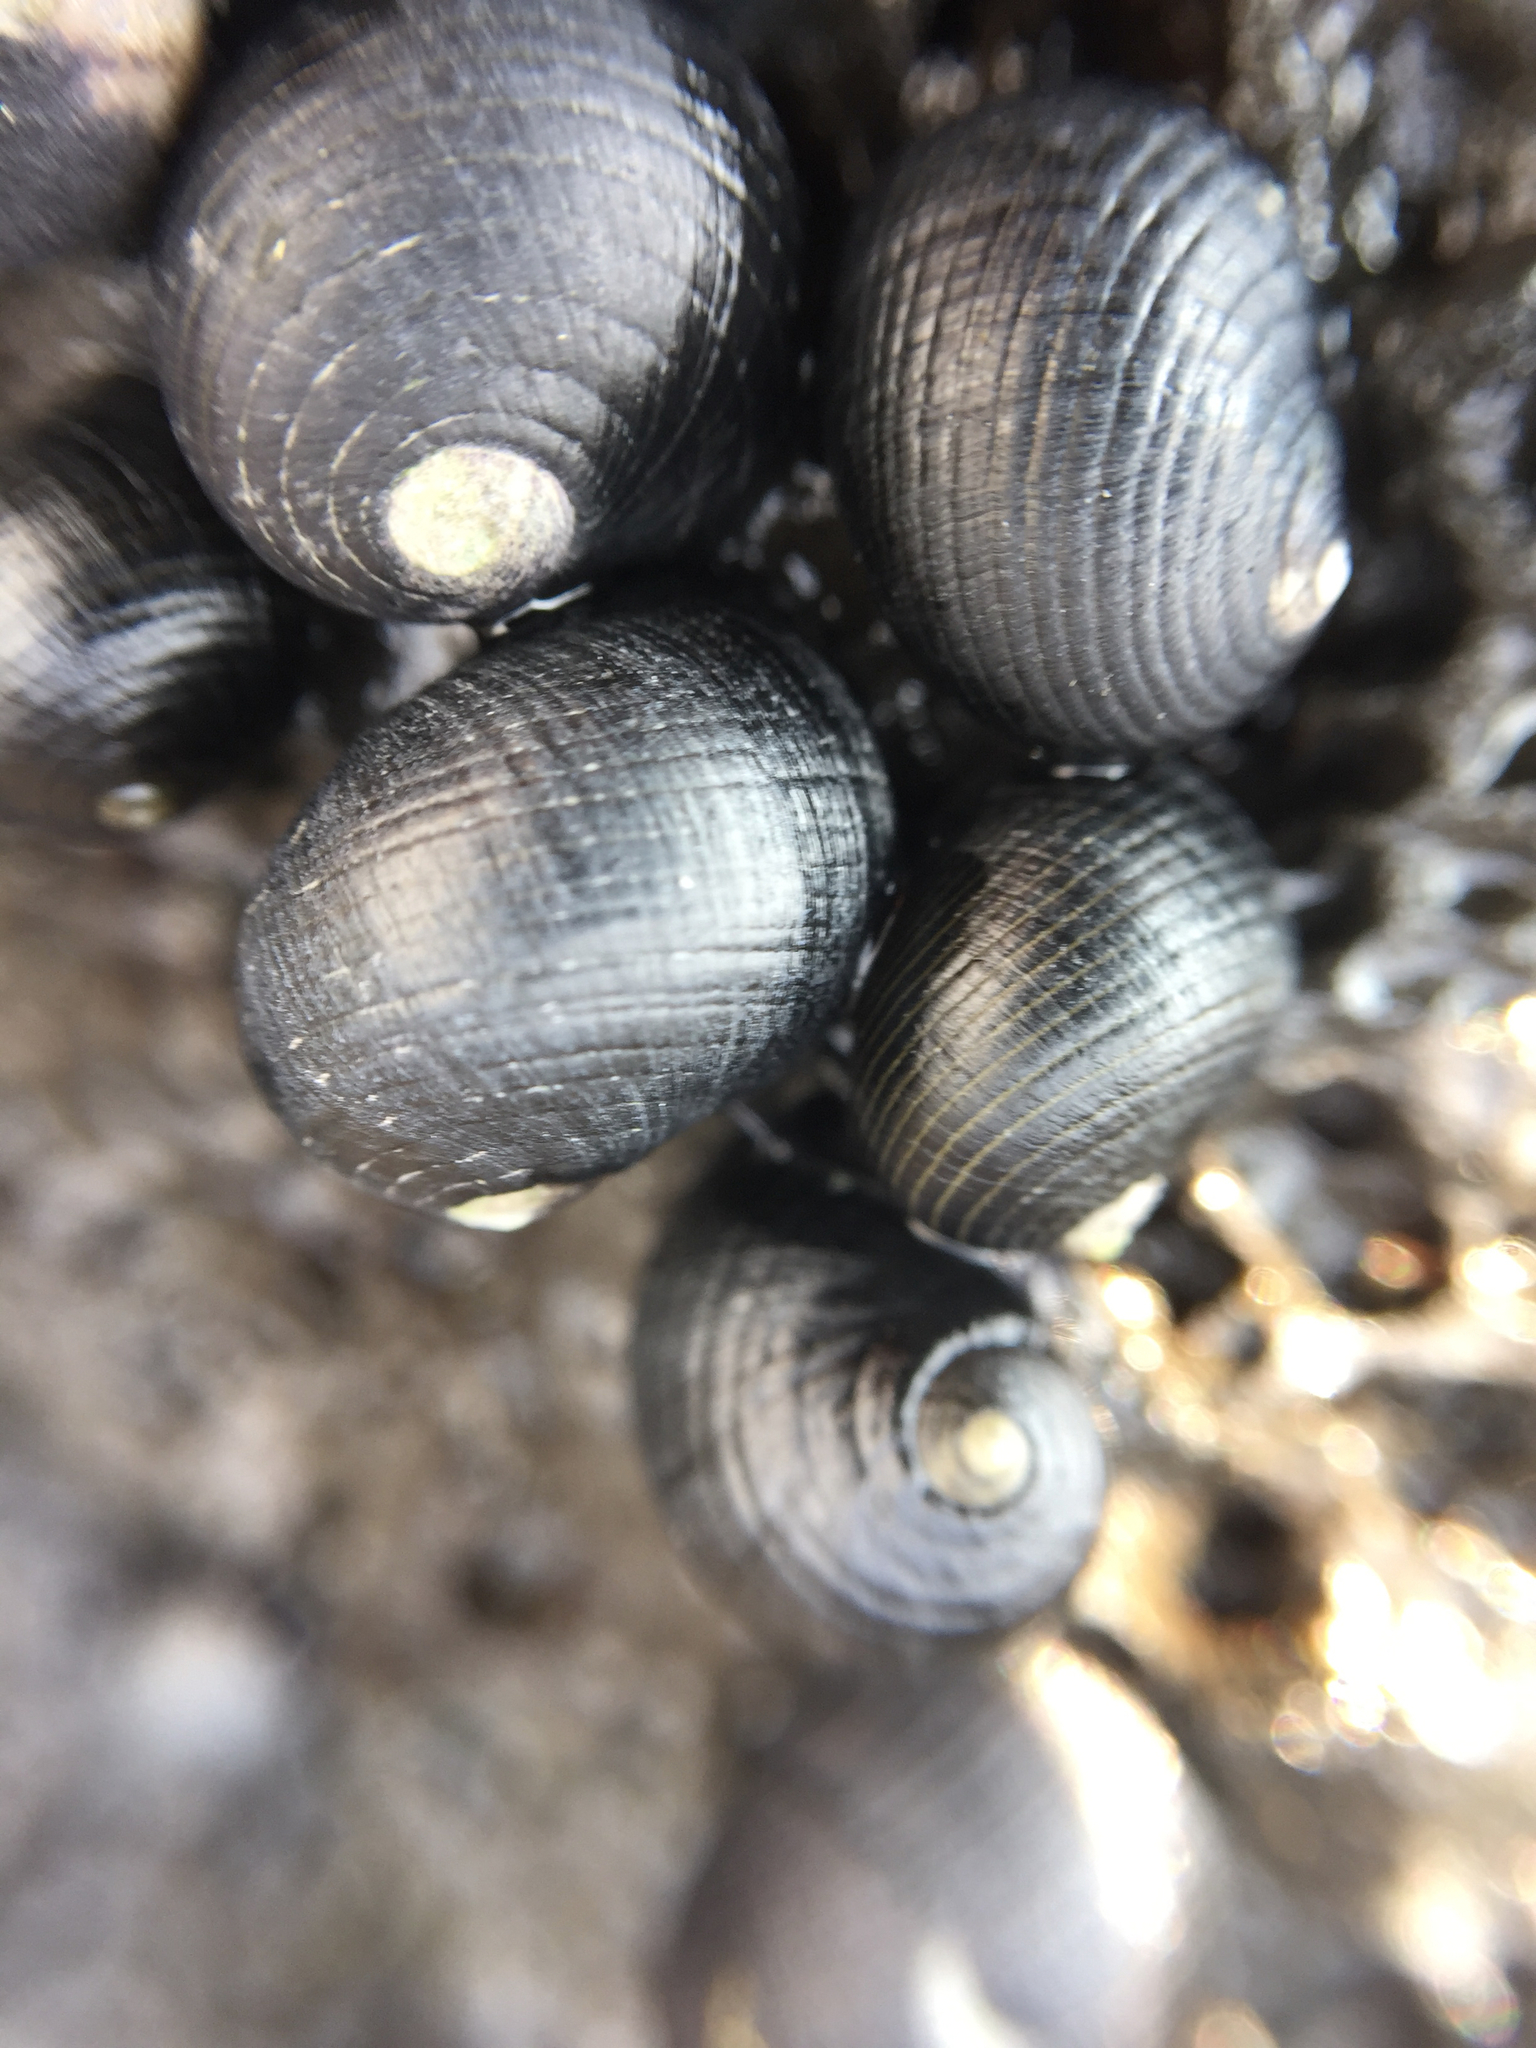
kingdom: Animalia
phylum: Mollusca
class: Gastropoda
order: Cycloneritida
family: Neritidae
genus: Nerita
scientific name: Nerita picea
